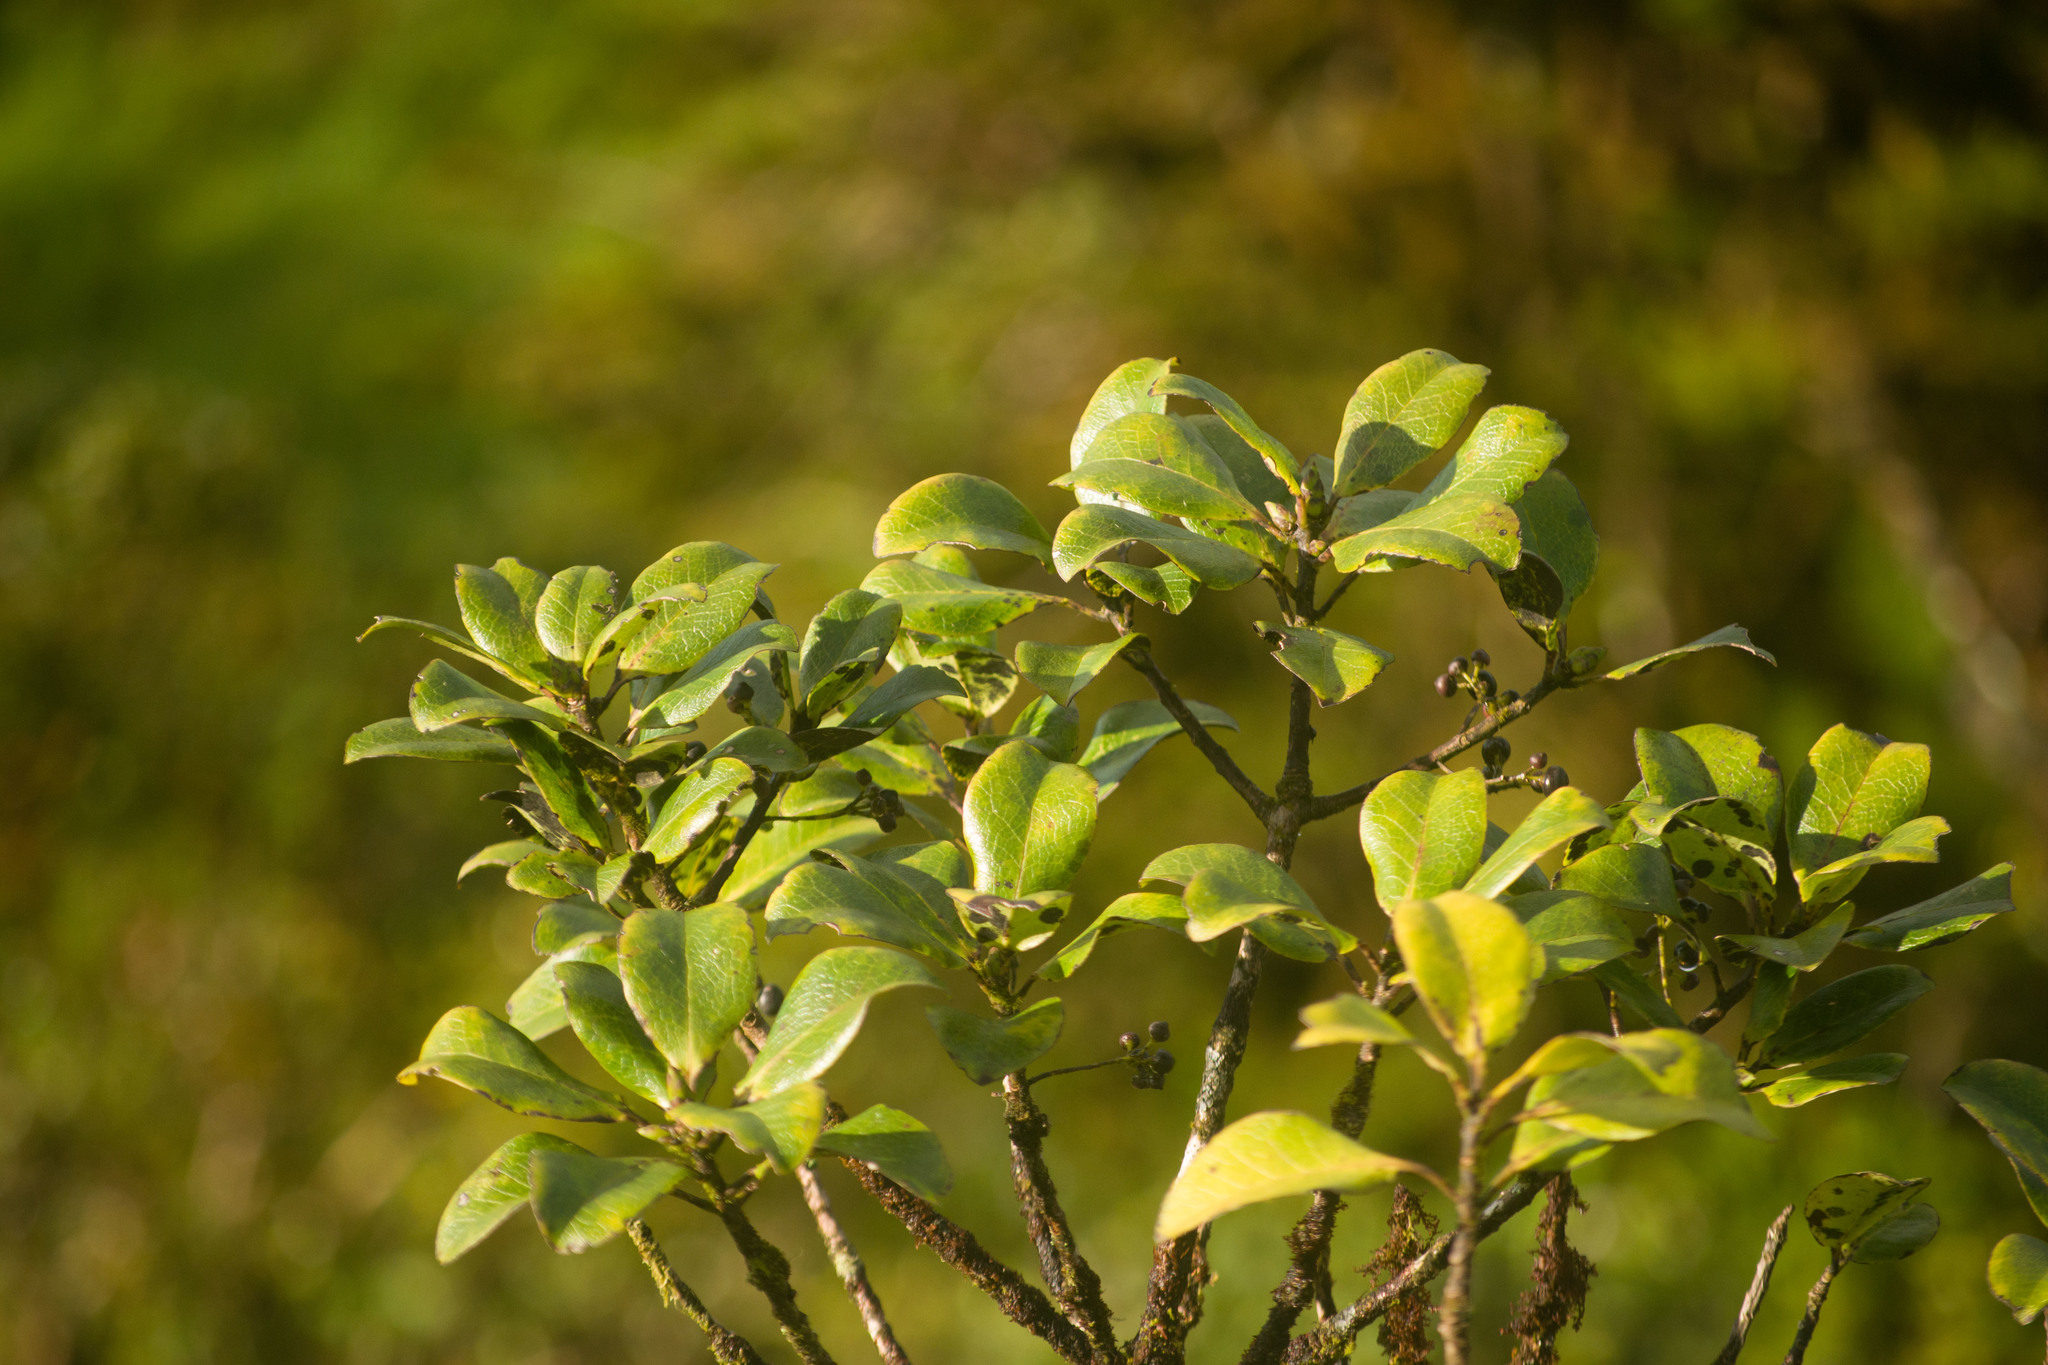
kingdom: Plantae
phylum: Tracheophyta
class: Magnoliopsida
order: Aquifoliales
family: Aquifoliaceae
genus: Ilex
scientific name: Ilex anomala
